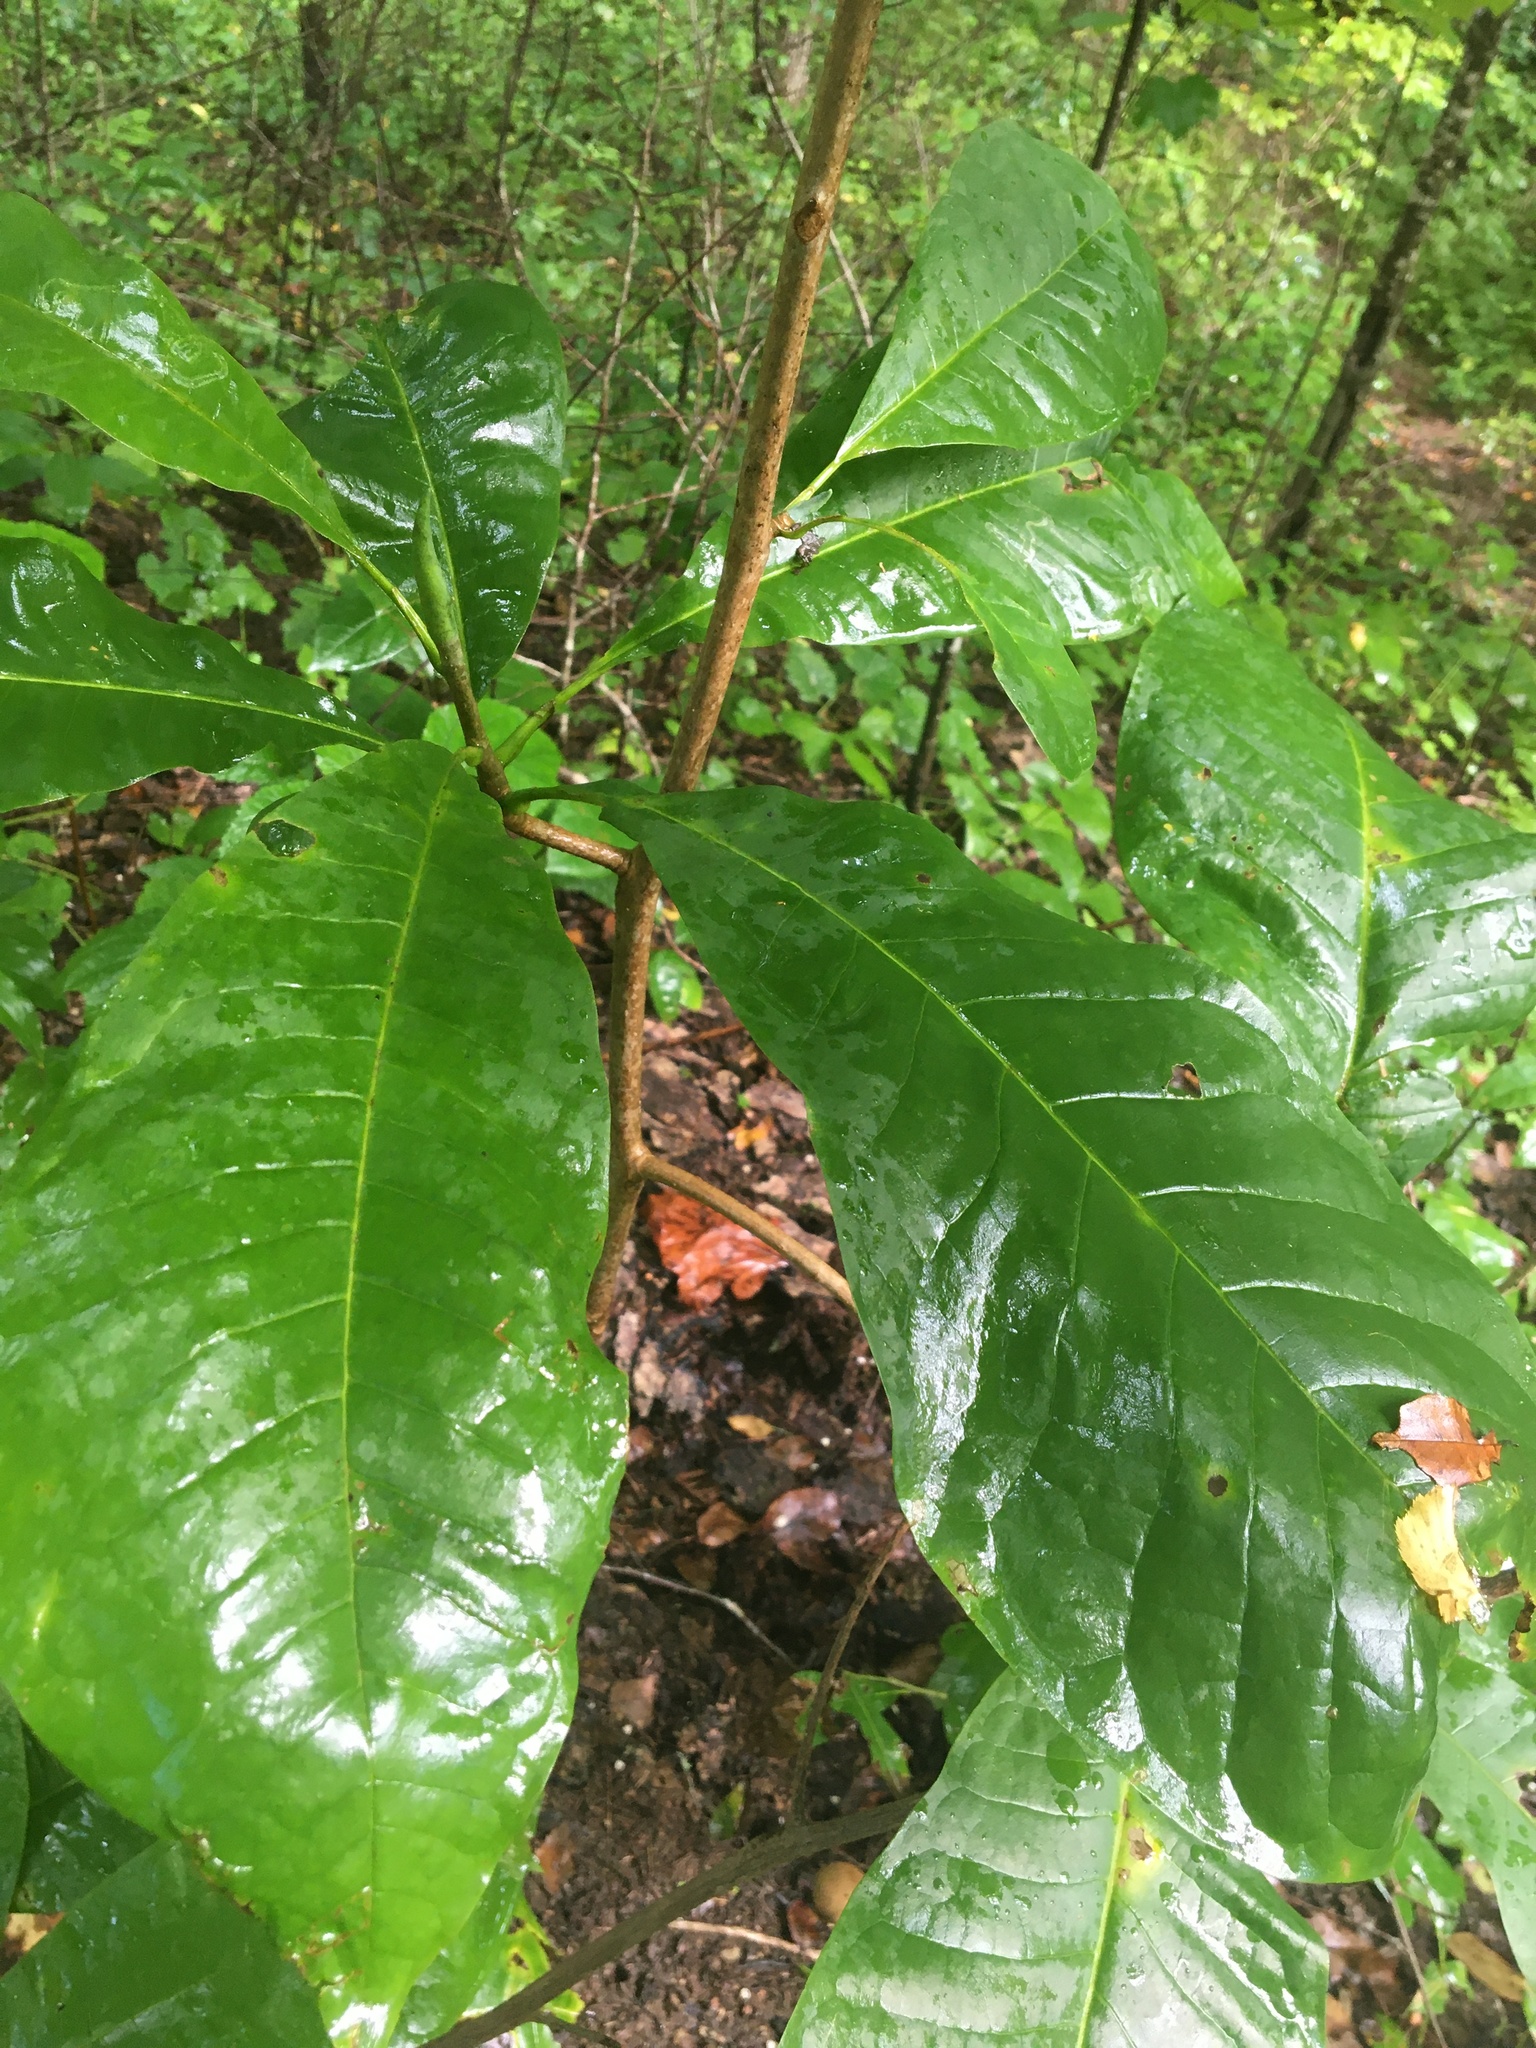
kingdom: Plantae
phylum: Tracheophyta
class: Magnoliopsida
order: Magnoliales
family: Magnoliaceae
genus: Magnolia
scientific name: Magnolia tripetala
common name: Umbrella magnolia
